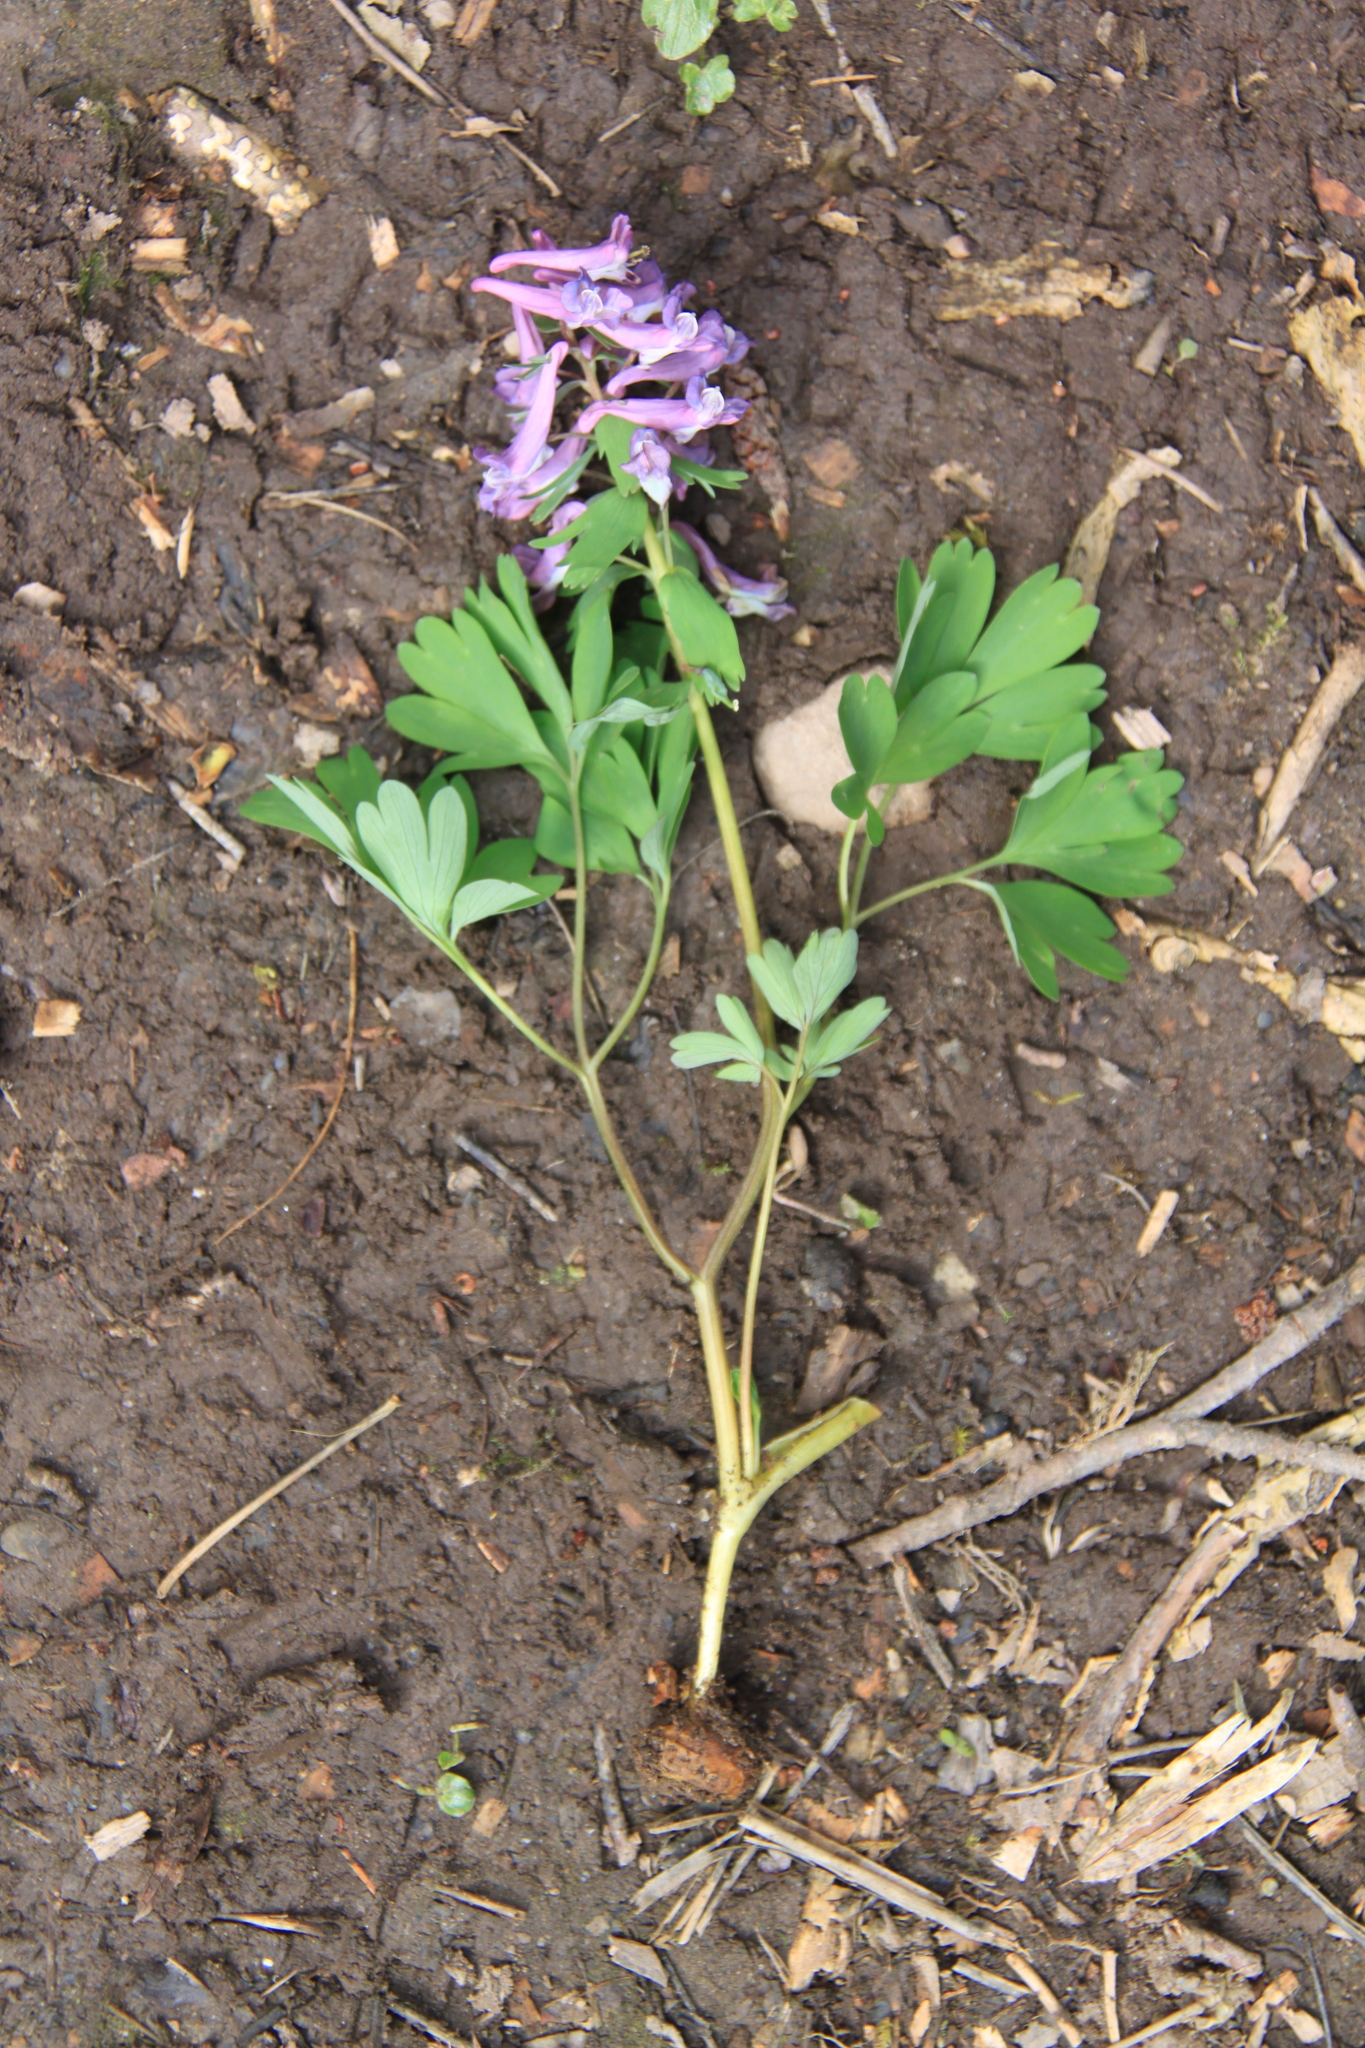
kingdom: Plantae
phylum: Tracheophyta
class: Magnoliopsida
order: Ranunculales
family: Papaveraceae
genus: Corydalis
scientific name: Corydalis solida
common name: Bird-in-a-bush
